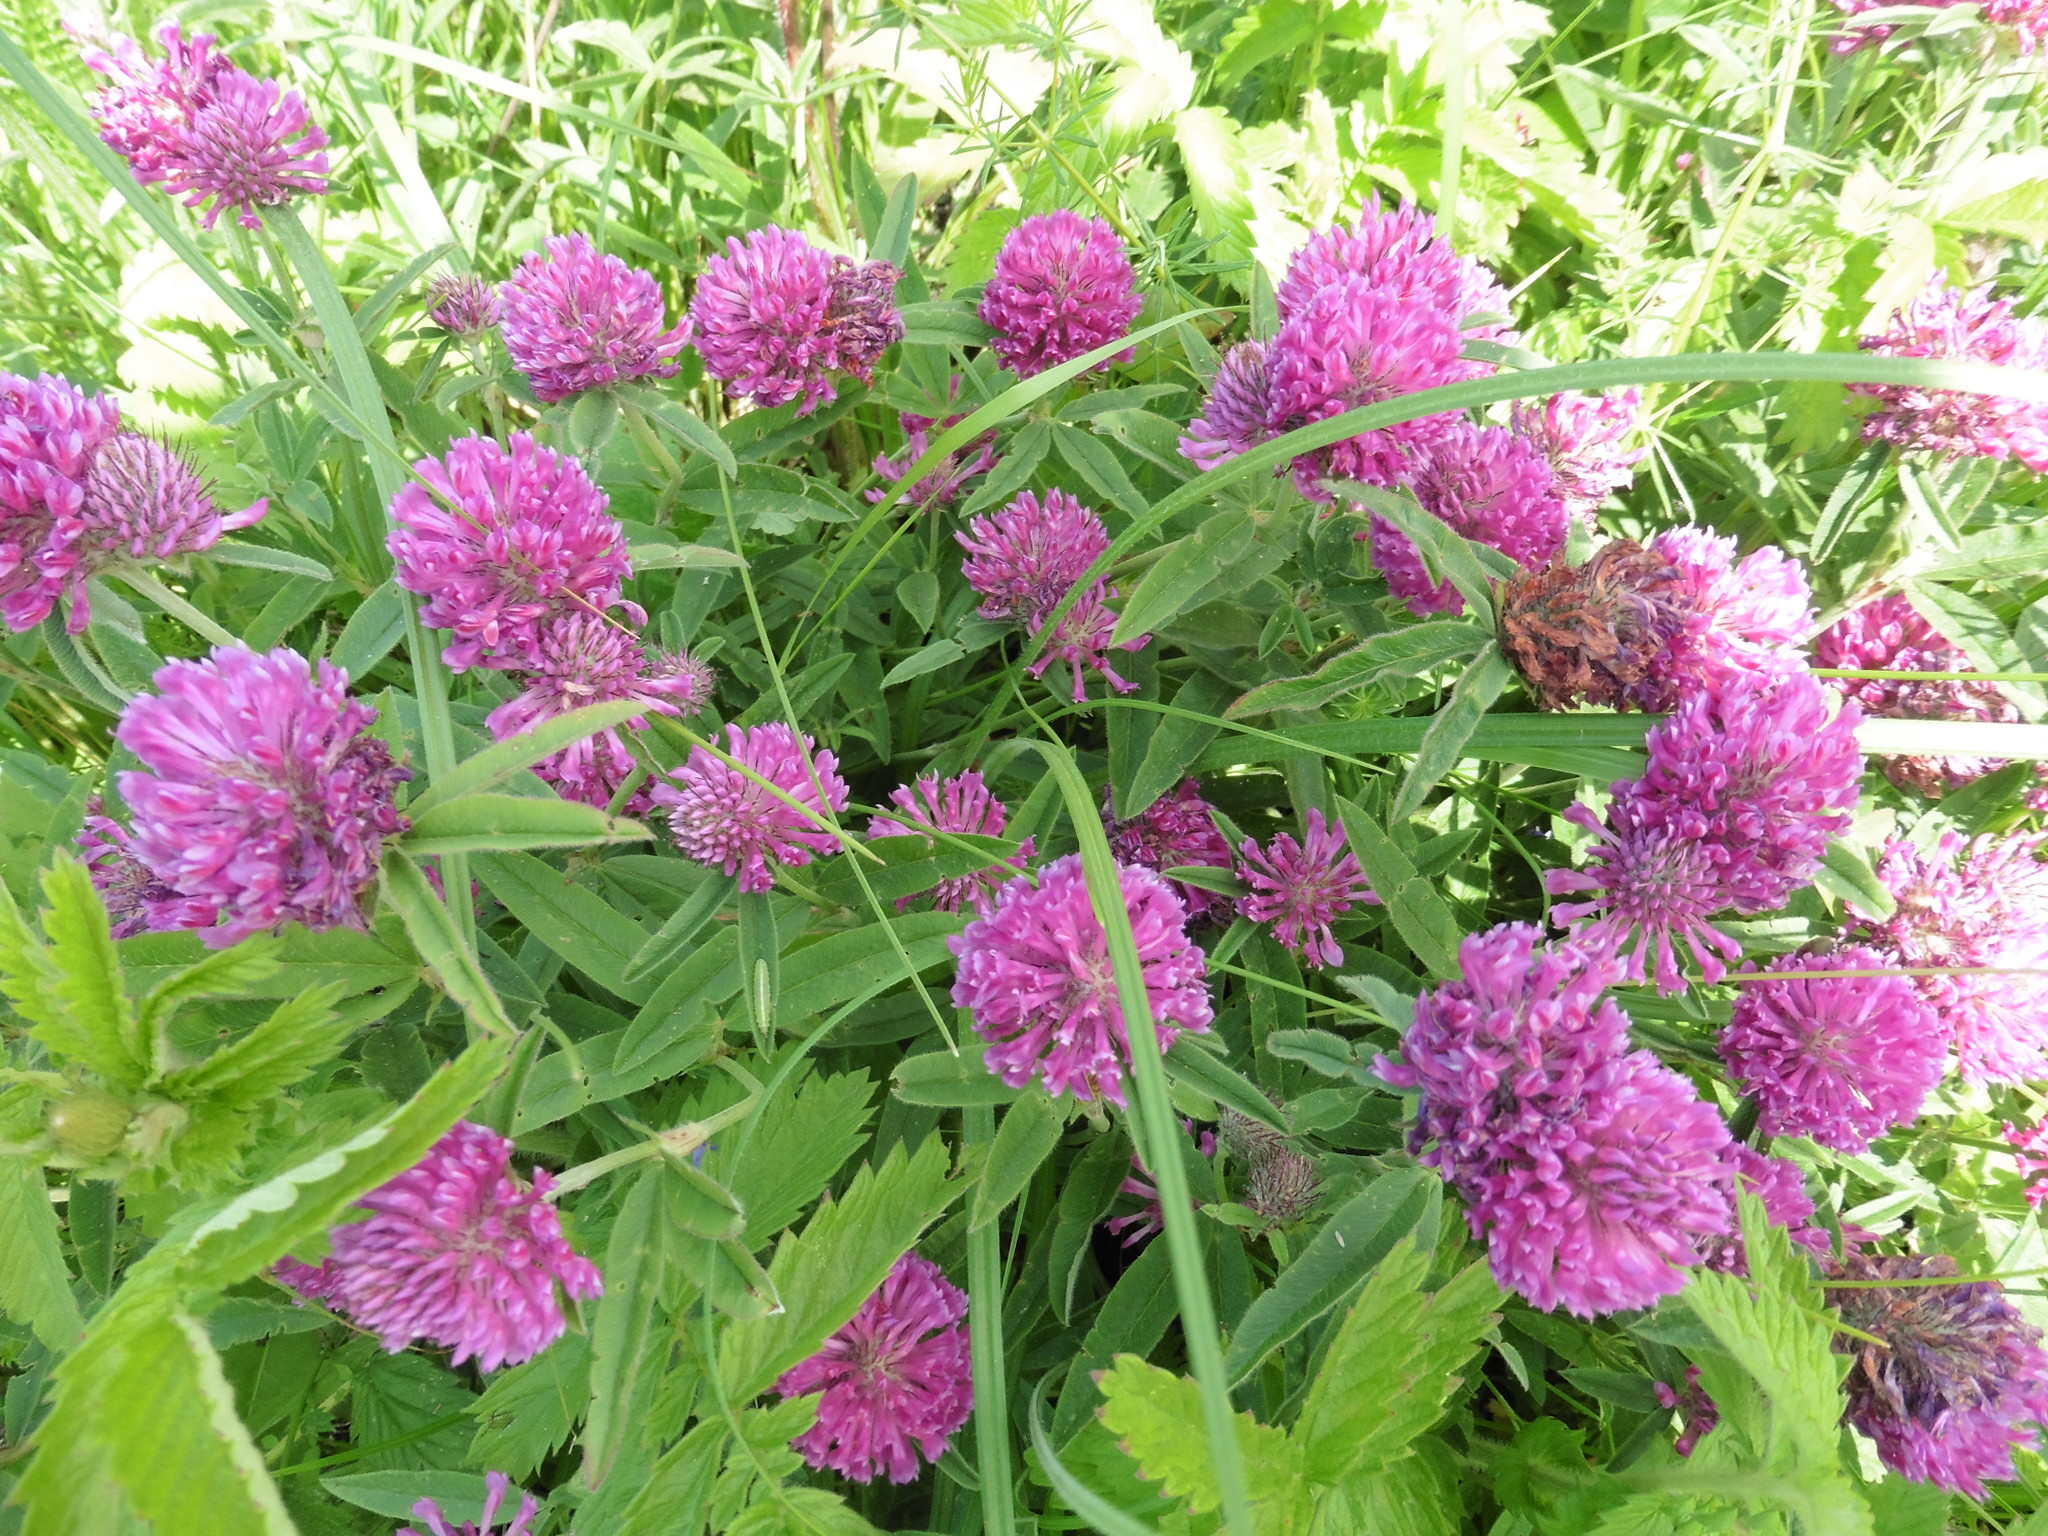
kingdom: Plantae
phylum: Tracheophyta
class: Magnoliopsida
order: Fabales
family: Fabaceae
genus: Trifolium
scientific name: Trifolium alpestre
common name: Owl-head clover
